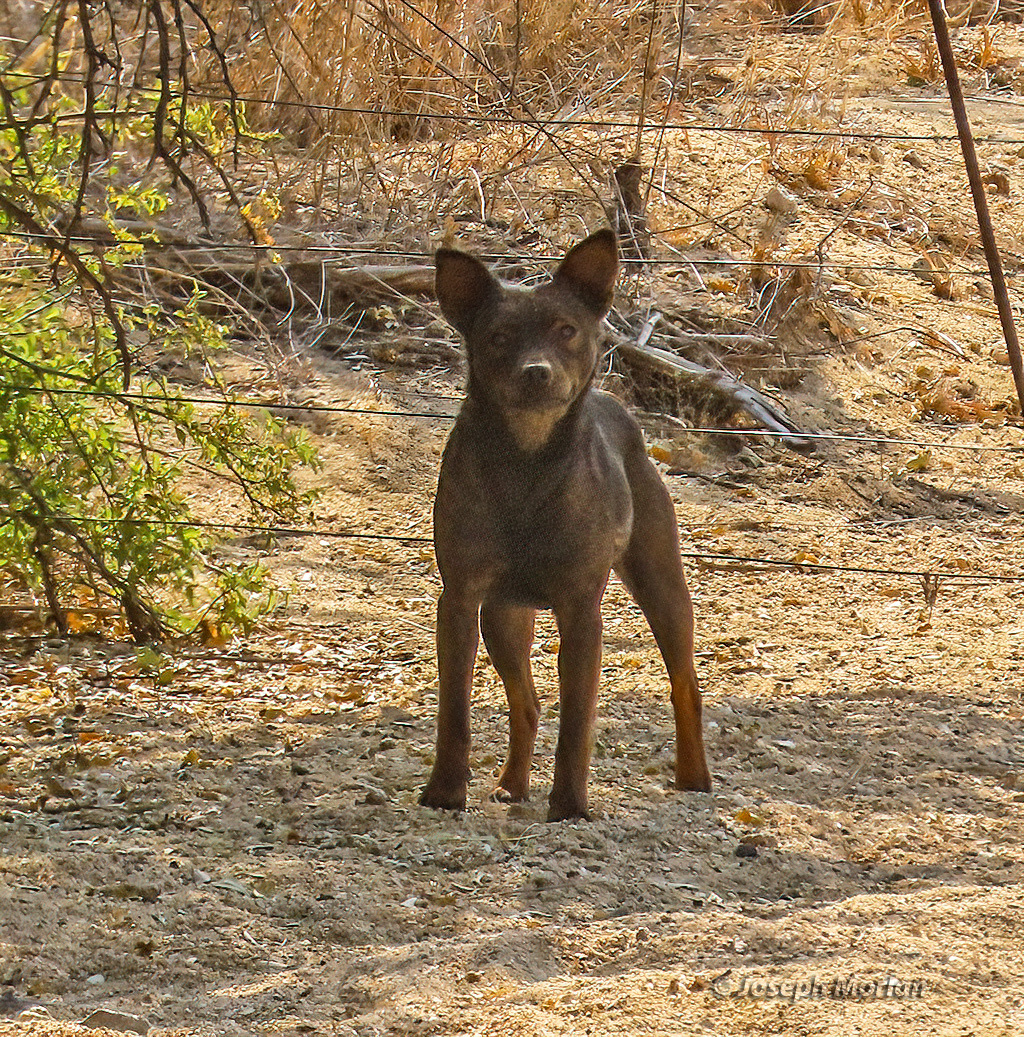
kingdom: Animalia
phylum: Chordata
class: Mammalia
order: Carnivora
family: Canidae
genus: Canis
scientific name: Canis lupus
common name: Gray wolf
